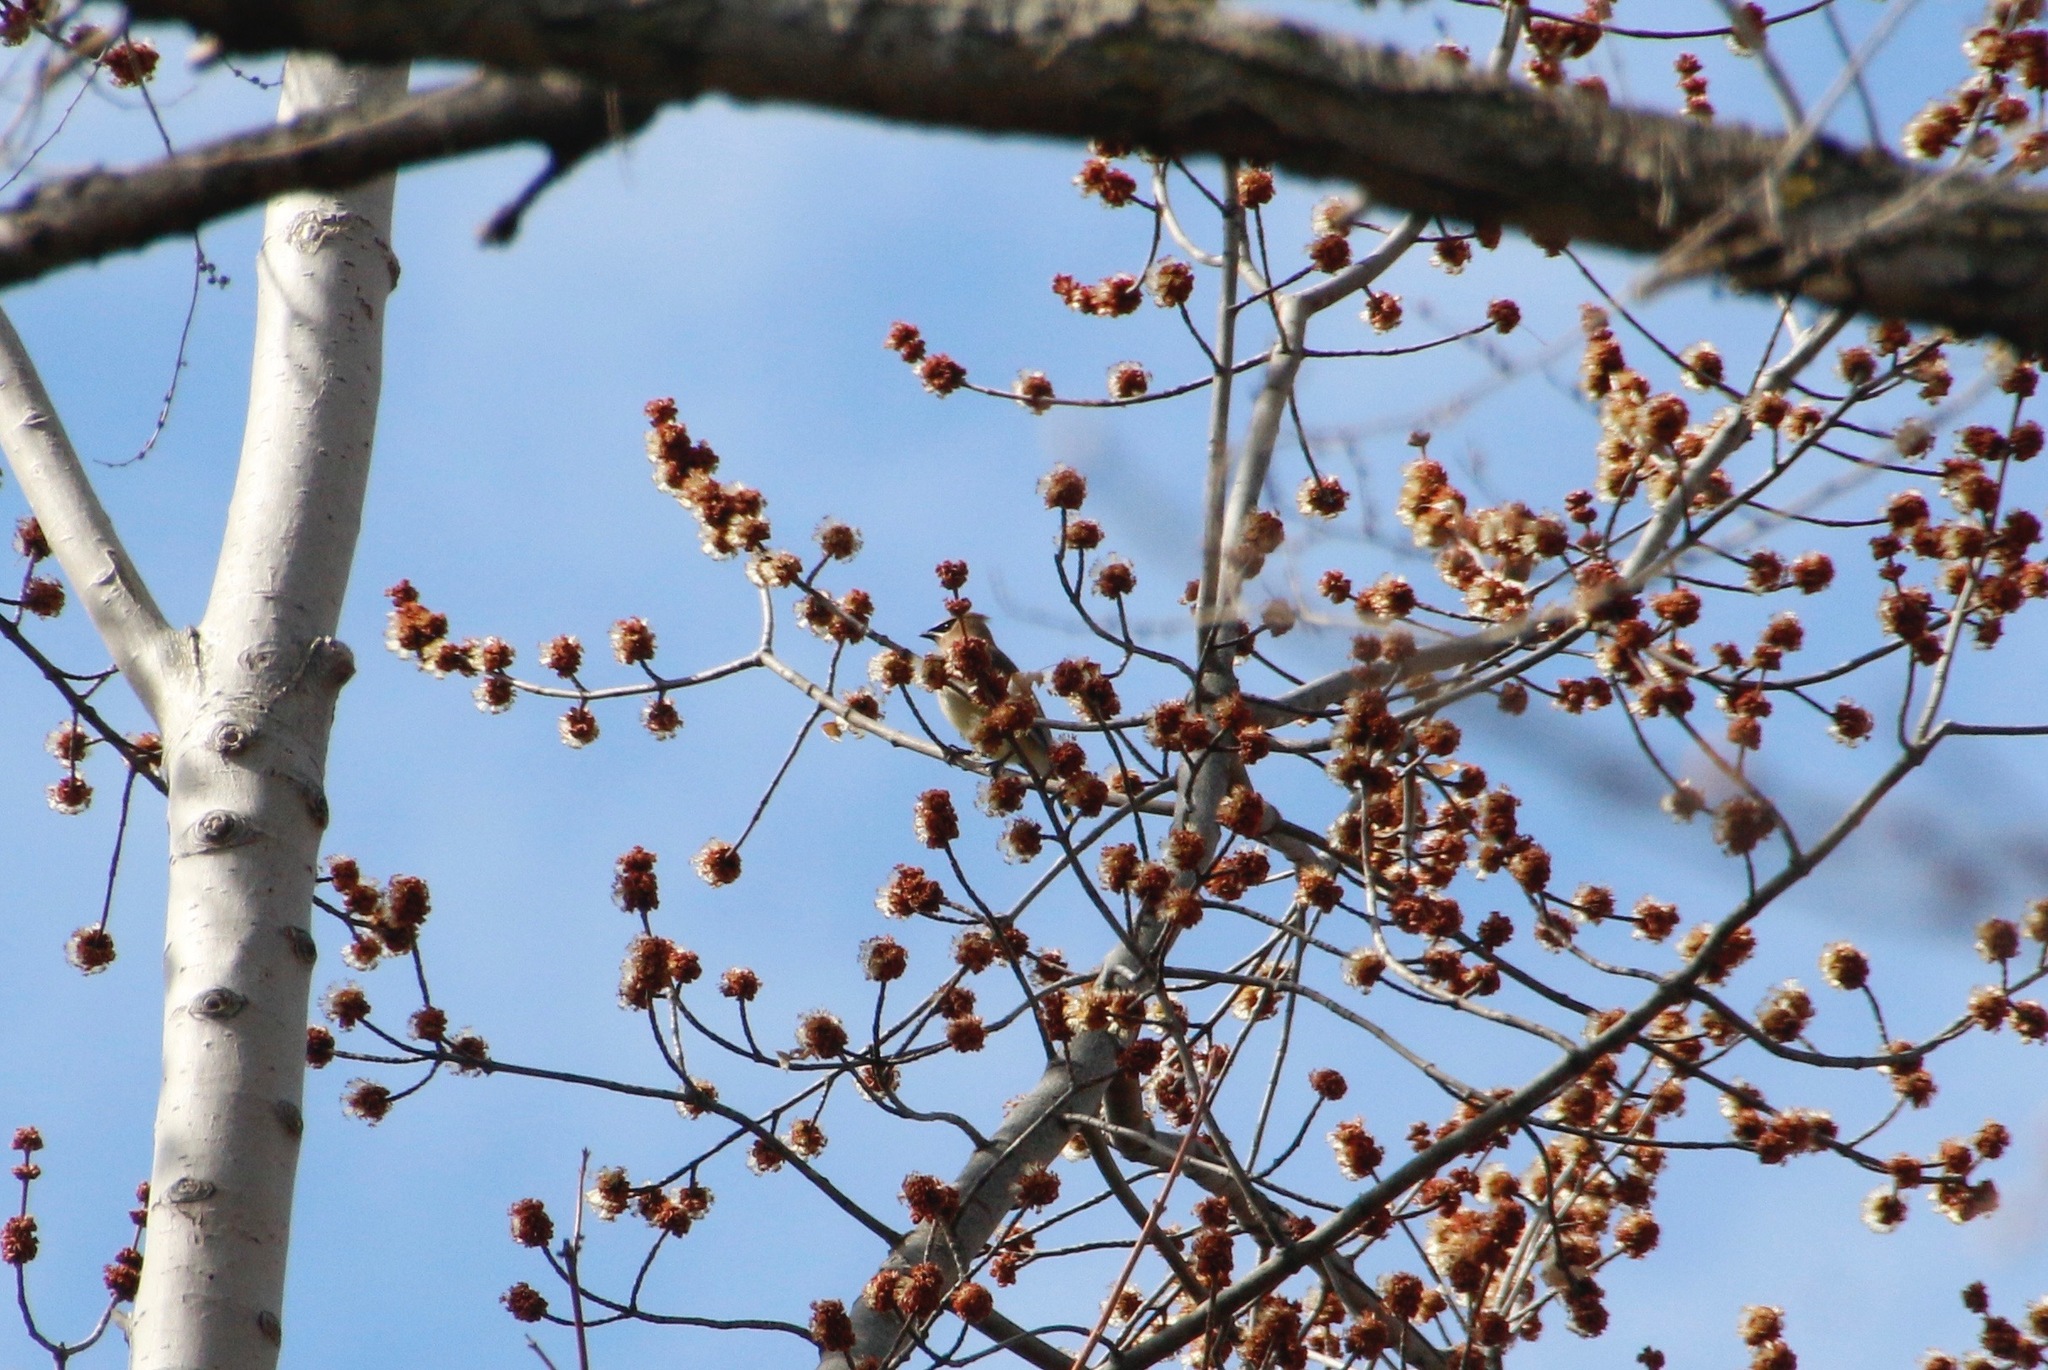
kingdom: Animalia
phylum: Chordata
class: Aves
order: Passeriformes
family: Bombycillidae
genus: Bombycilla
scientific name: Bombycilla cedrorum
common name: Cedar waxwing
